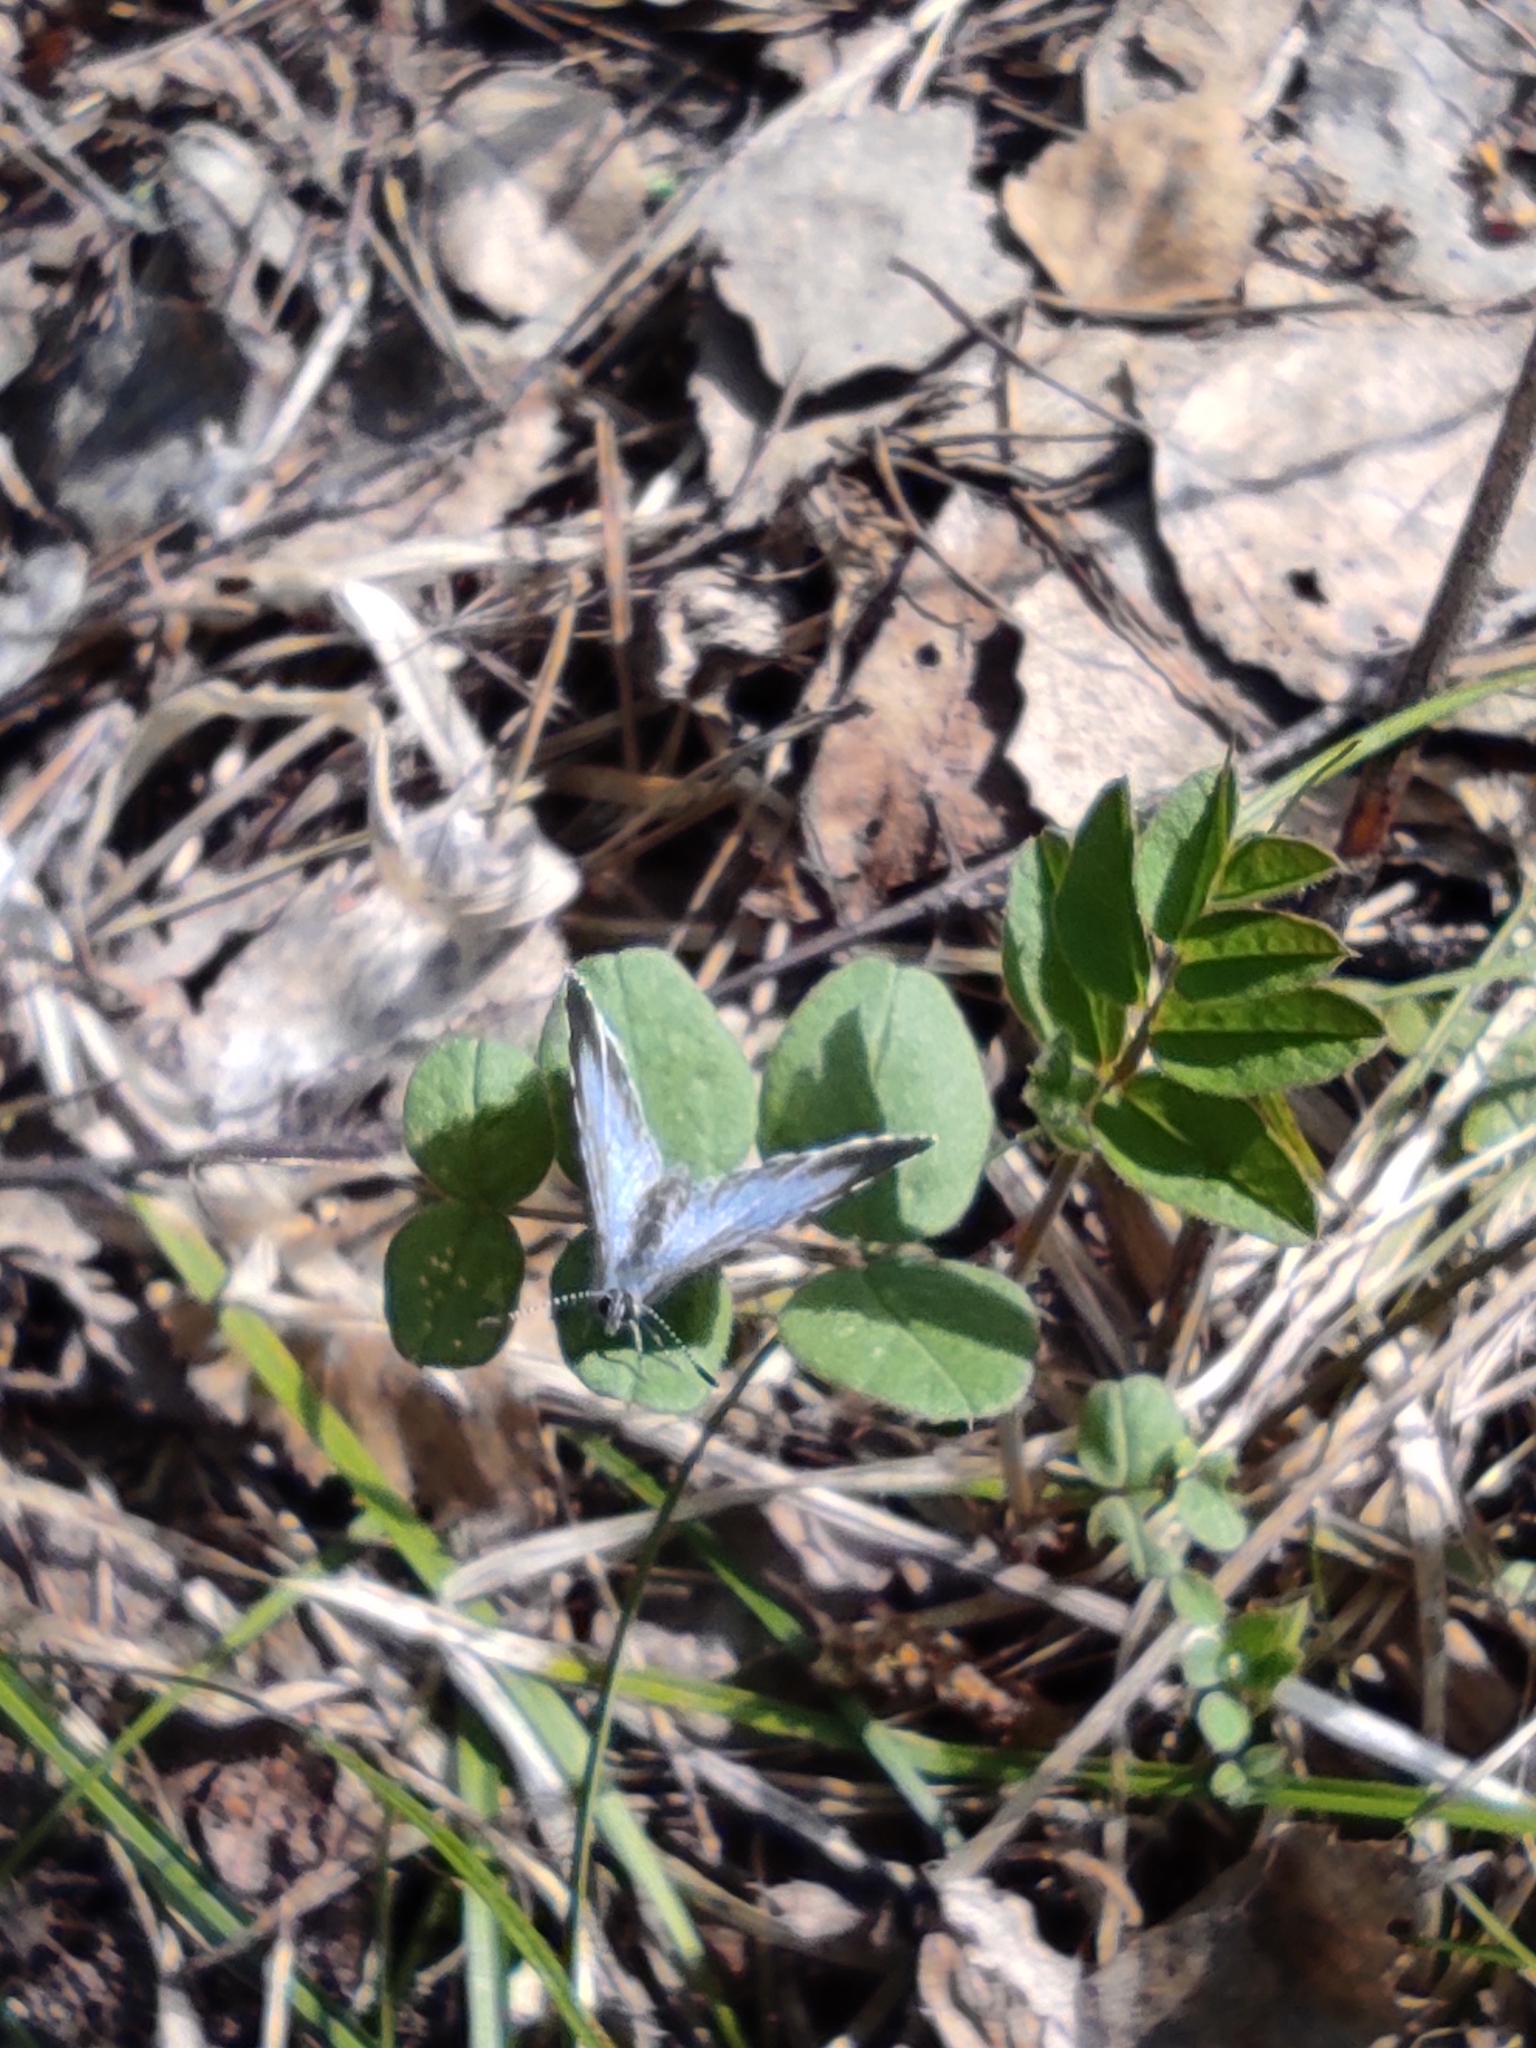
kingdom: Animalia
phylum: Arthropoda
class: Insecta
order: Lepidoptera
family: Lycaenidae
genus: Celastrina
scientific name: Celastrina argiolus
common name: Holly blue
